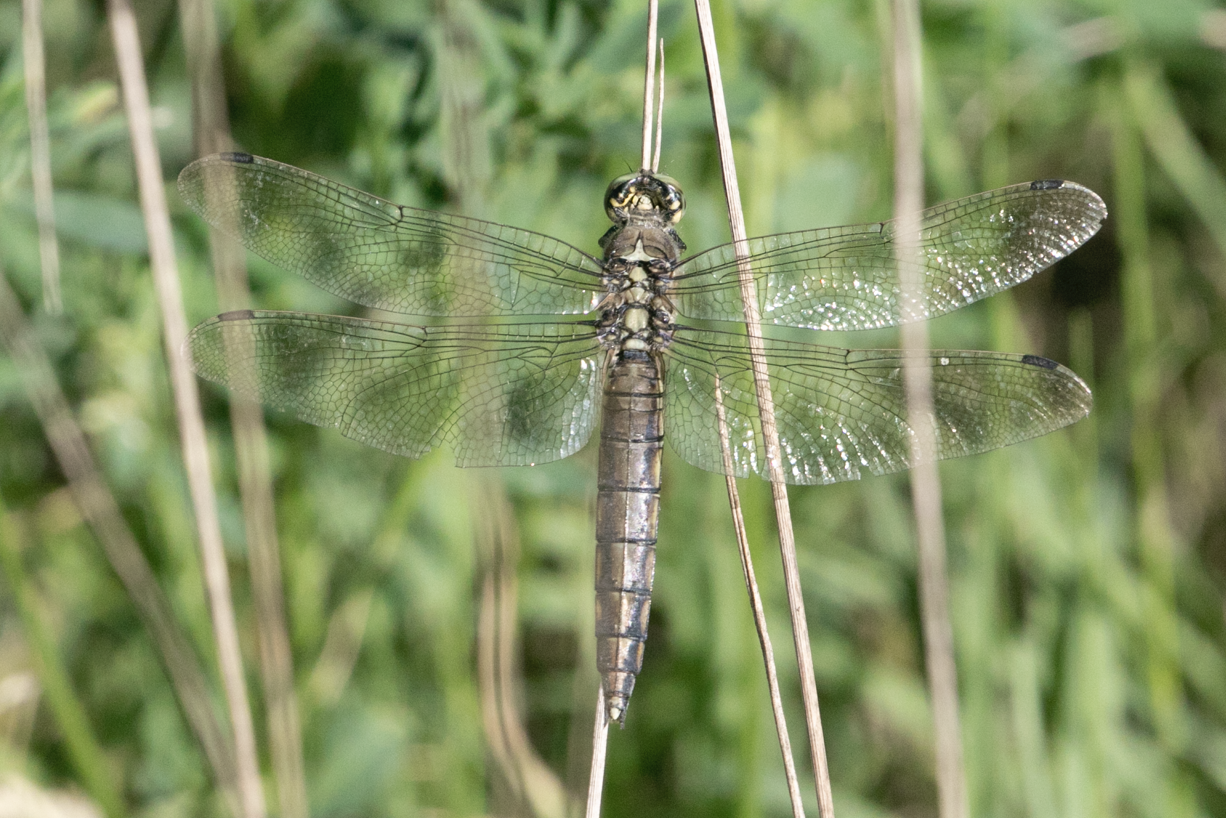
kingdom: Animalia
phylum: Arthropoda
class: Insecta
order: Odonata
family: Libellulidae
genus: Orthetrum
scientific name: Orthetrum cancellatum
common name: Black-tailed skimmer
